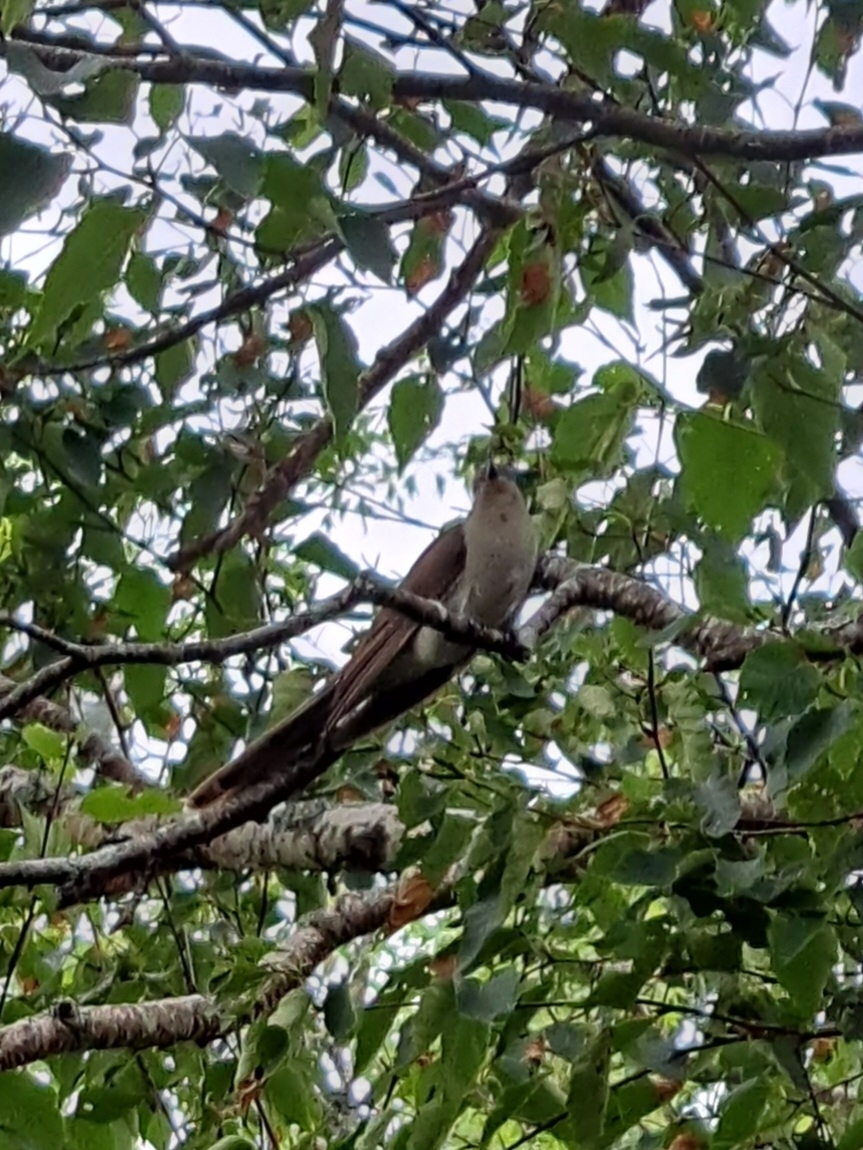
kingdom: Animalia
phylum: Chordata
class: Aves
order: Cuculiformes
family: Cuculidae
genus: Coccyzus
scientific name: Coccyzus erythropthalmus
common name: Black-billed cuckoo
